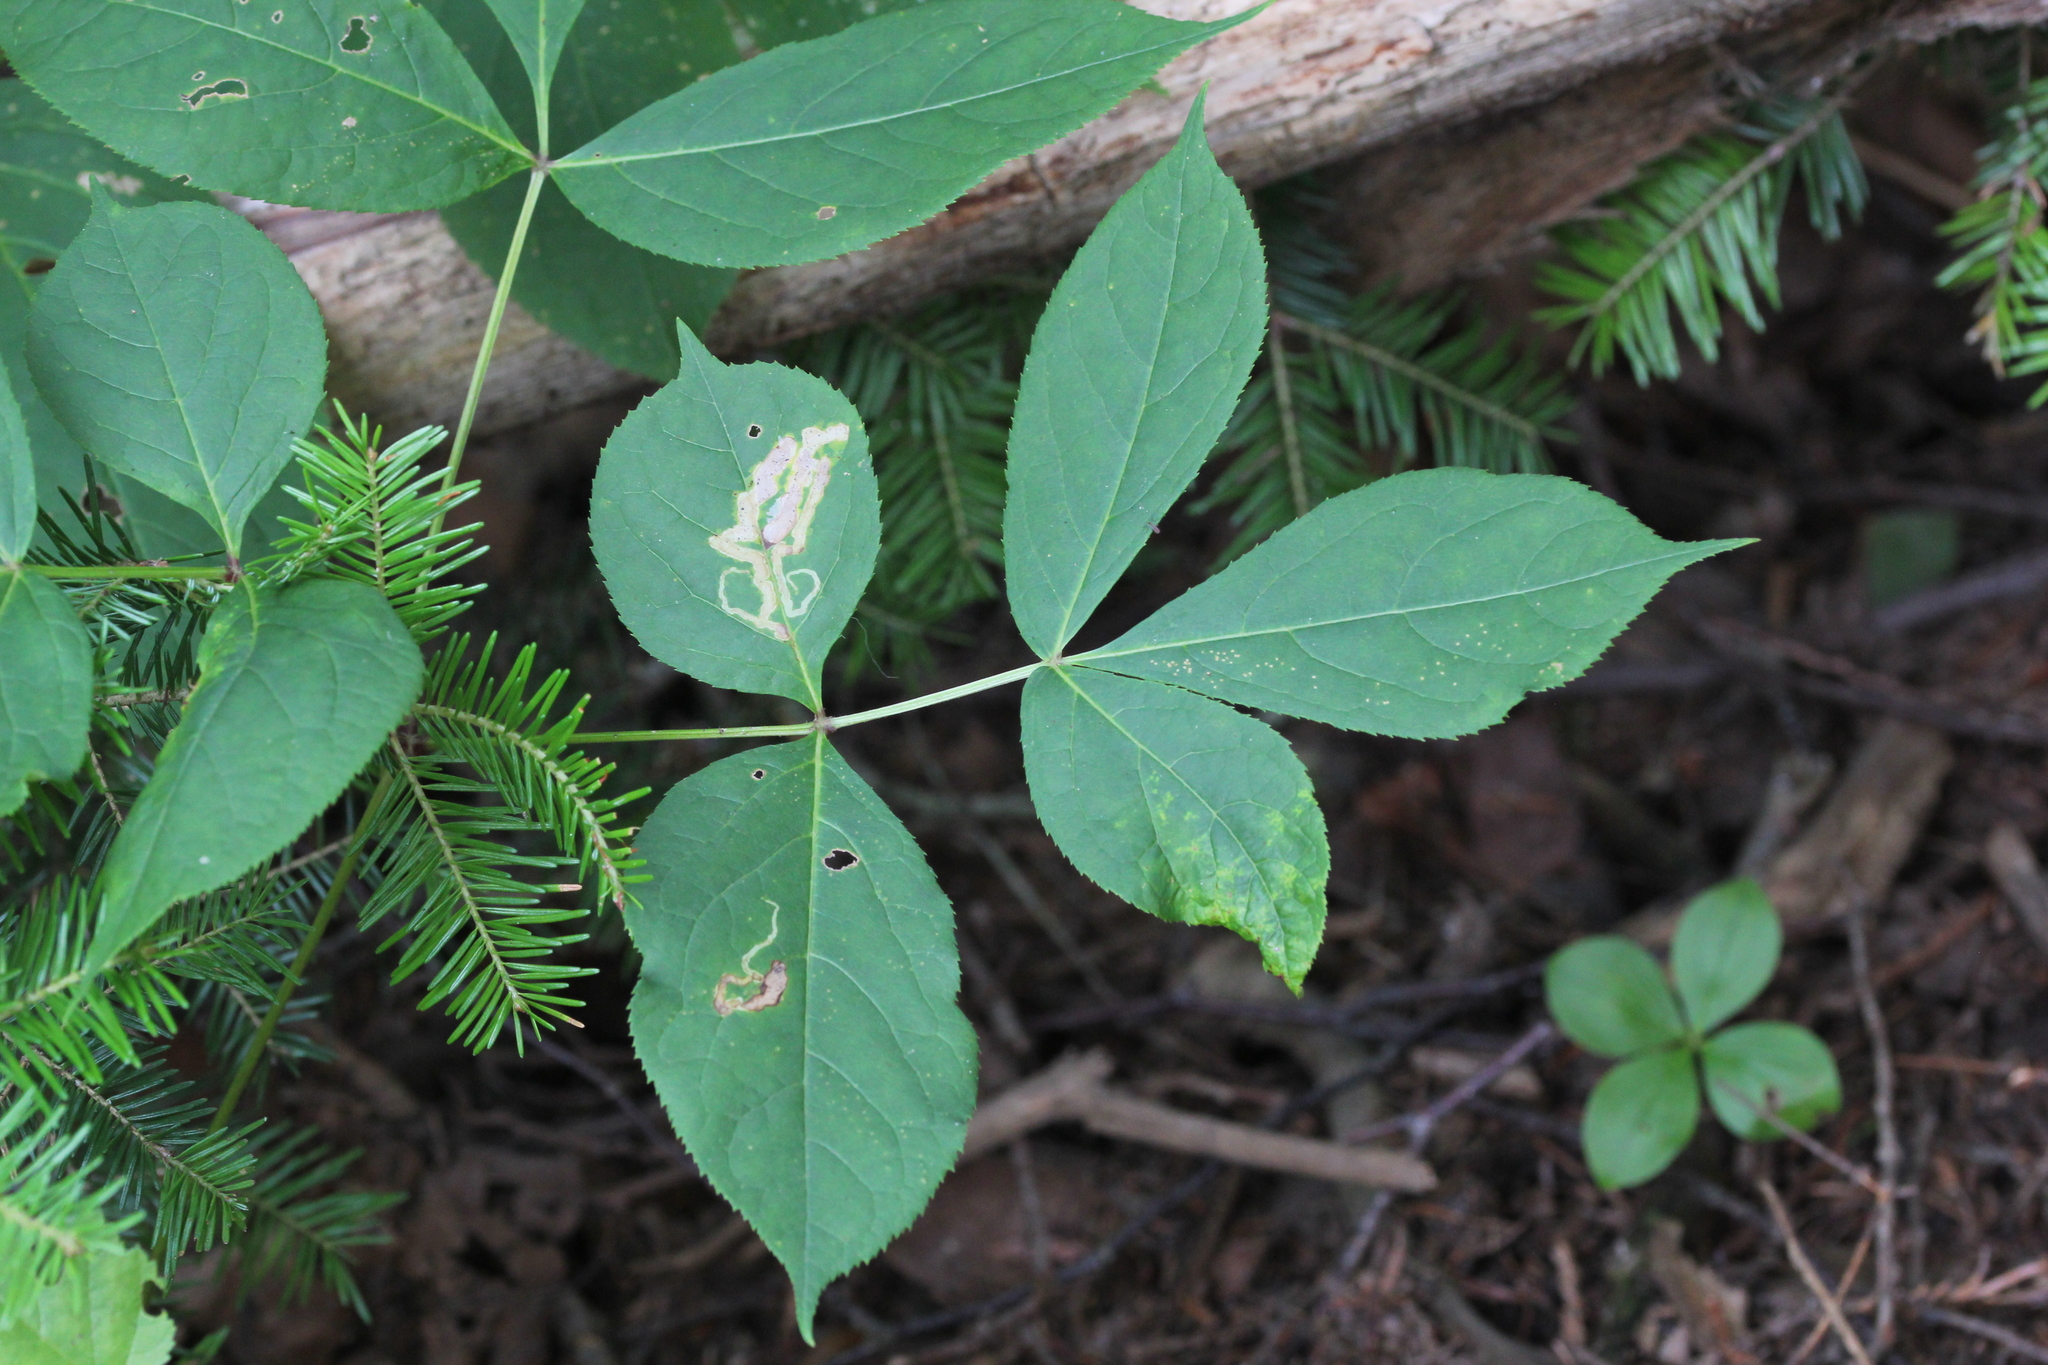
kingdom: Animalia
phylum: Arthropoda
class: Insecta
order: Diptera
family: Agromyzidae
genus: Phytomyza
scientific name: Phytomyza aralivora
